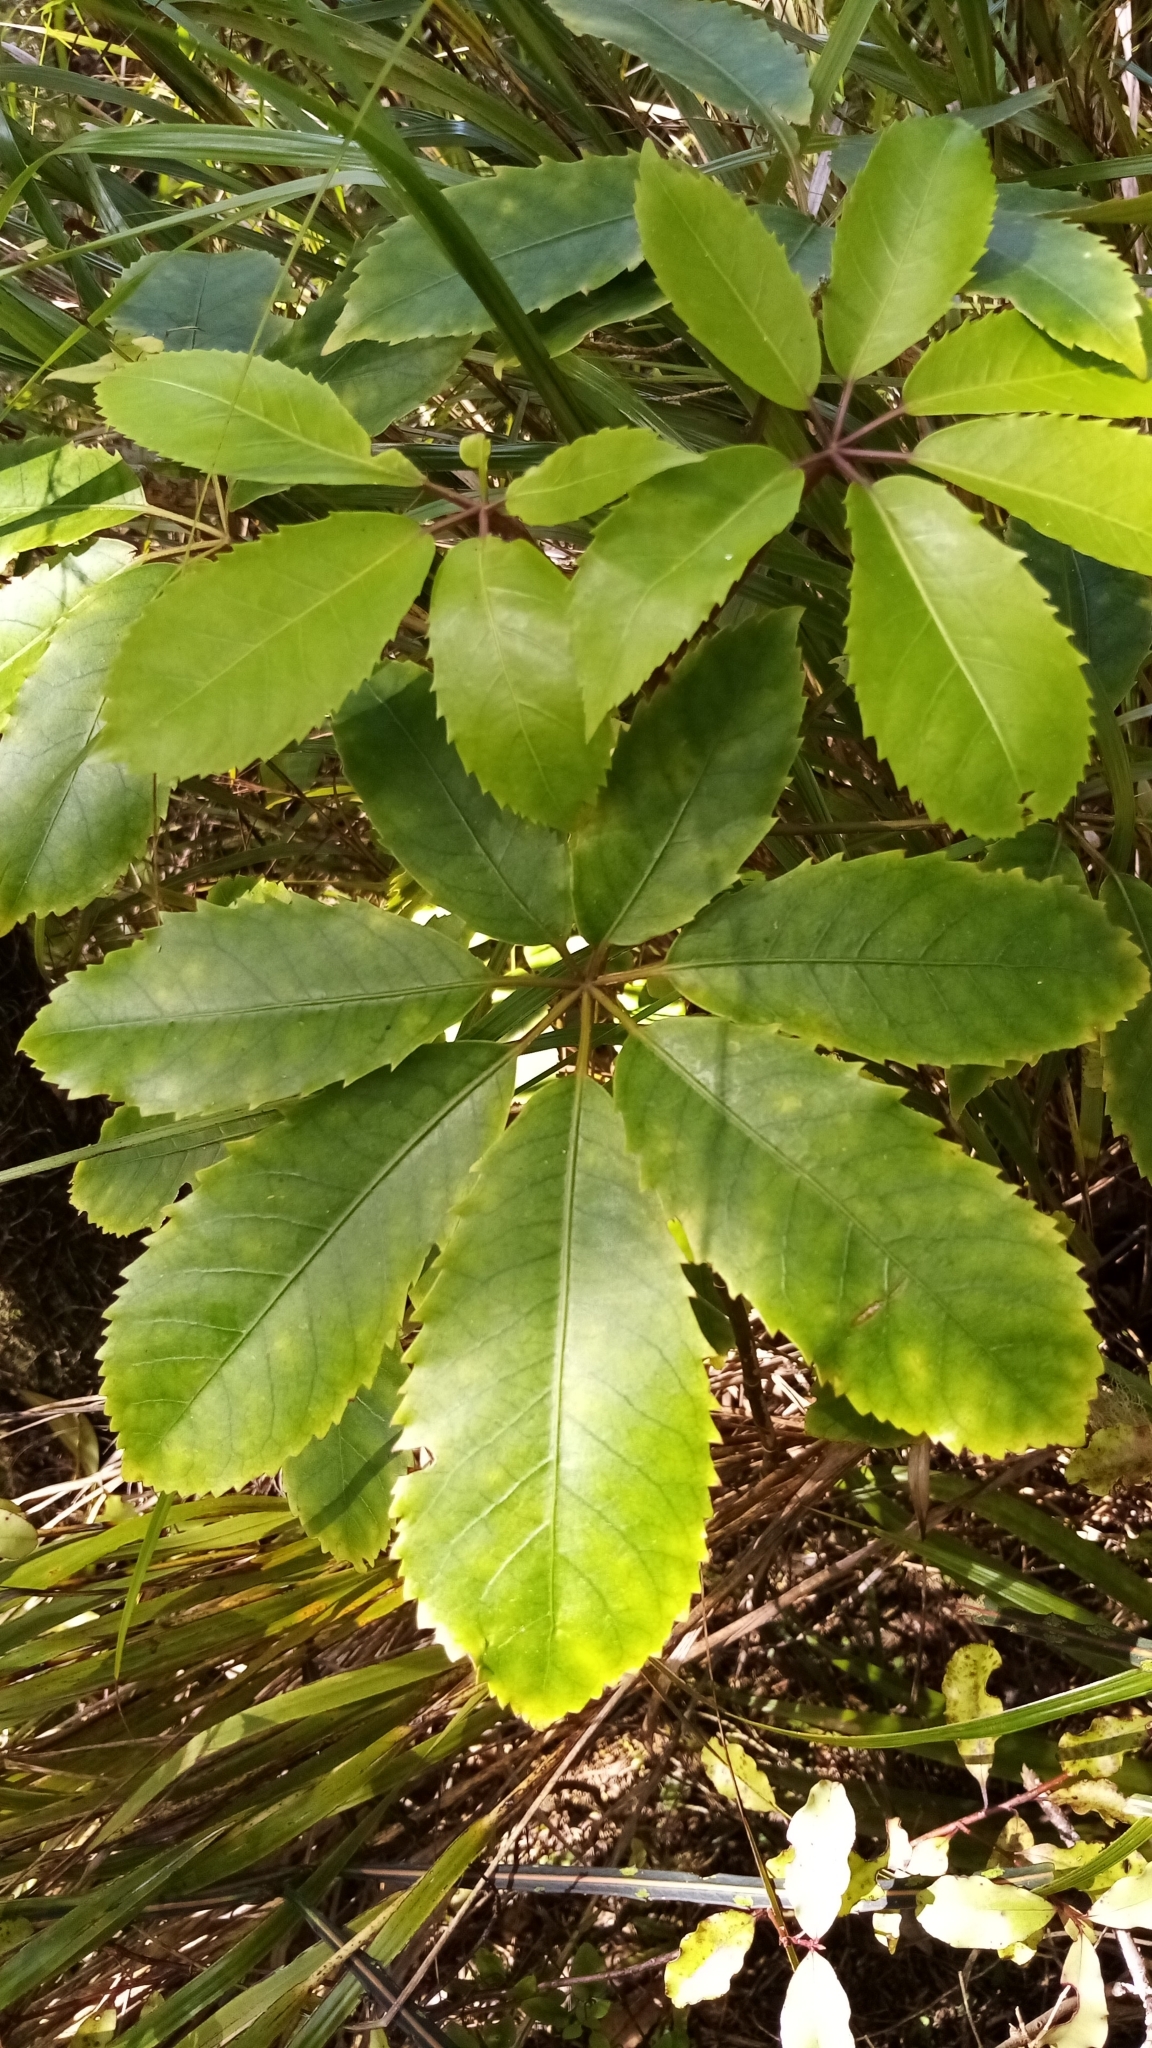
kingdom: Plantae
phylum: Tracheophyta
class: Magnoliopsida
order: Apiales
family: Araliaceae
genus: Neopanax
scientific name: Neopanax arboreus
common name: Five-fingers
